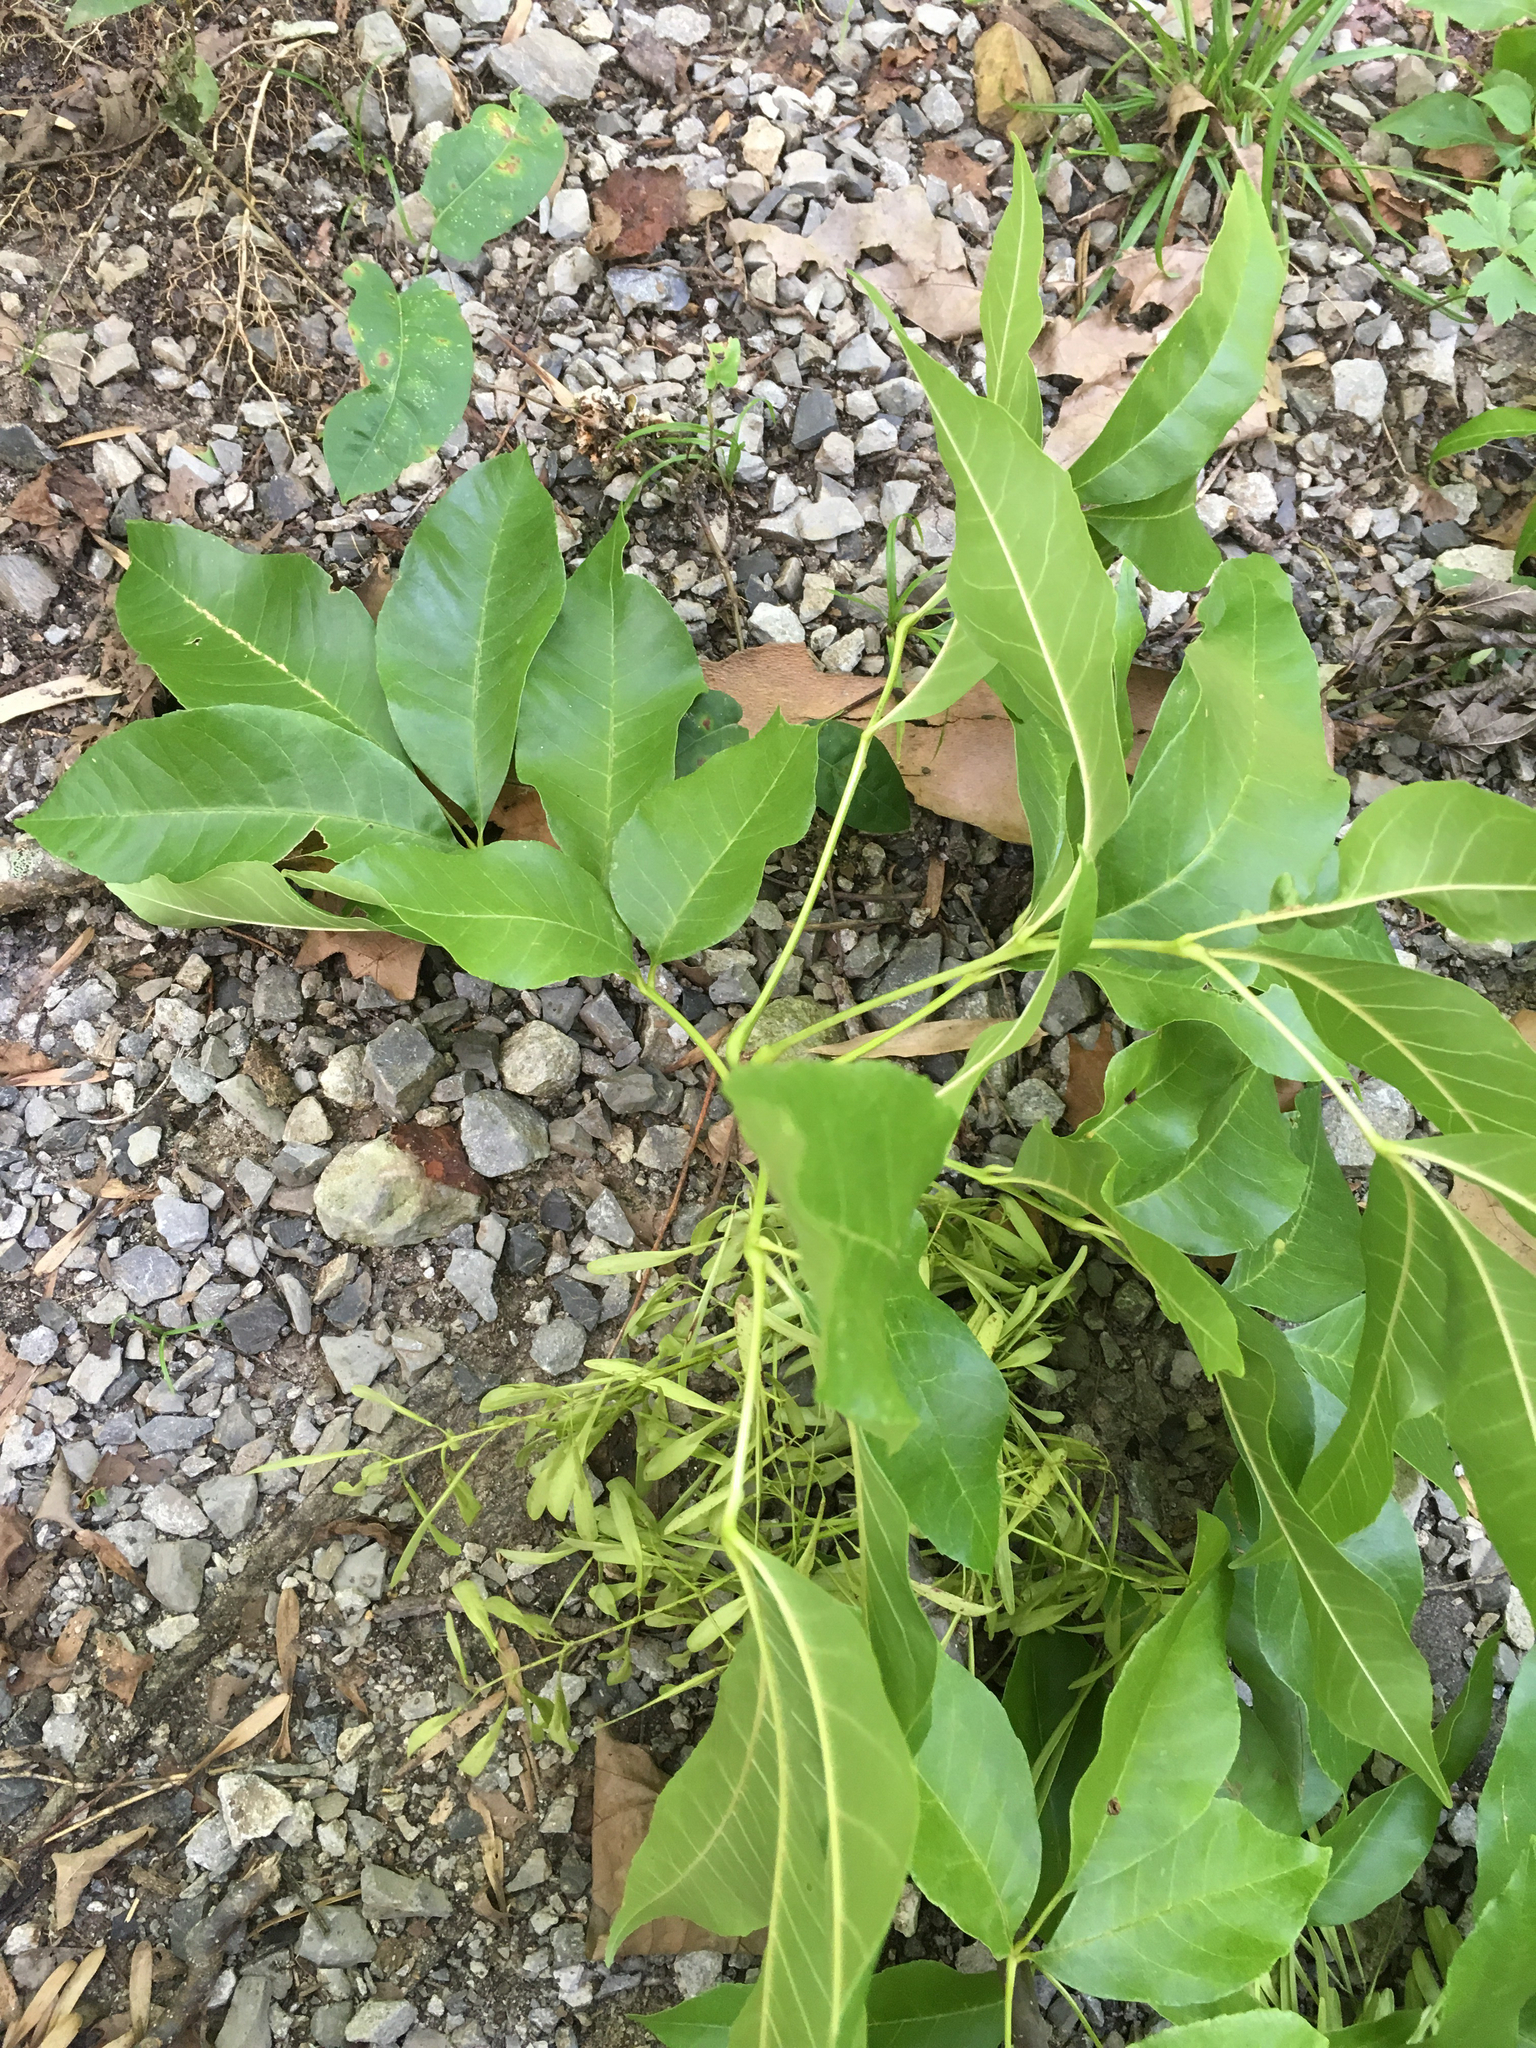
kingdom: Plantae
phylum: Tracheophyta
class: Magnoliopsida
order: Lamiales
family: Oleaceae
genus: Fraxinus
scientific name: Fraxinus pennsylvanica
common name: Green ash
